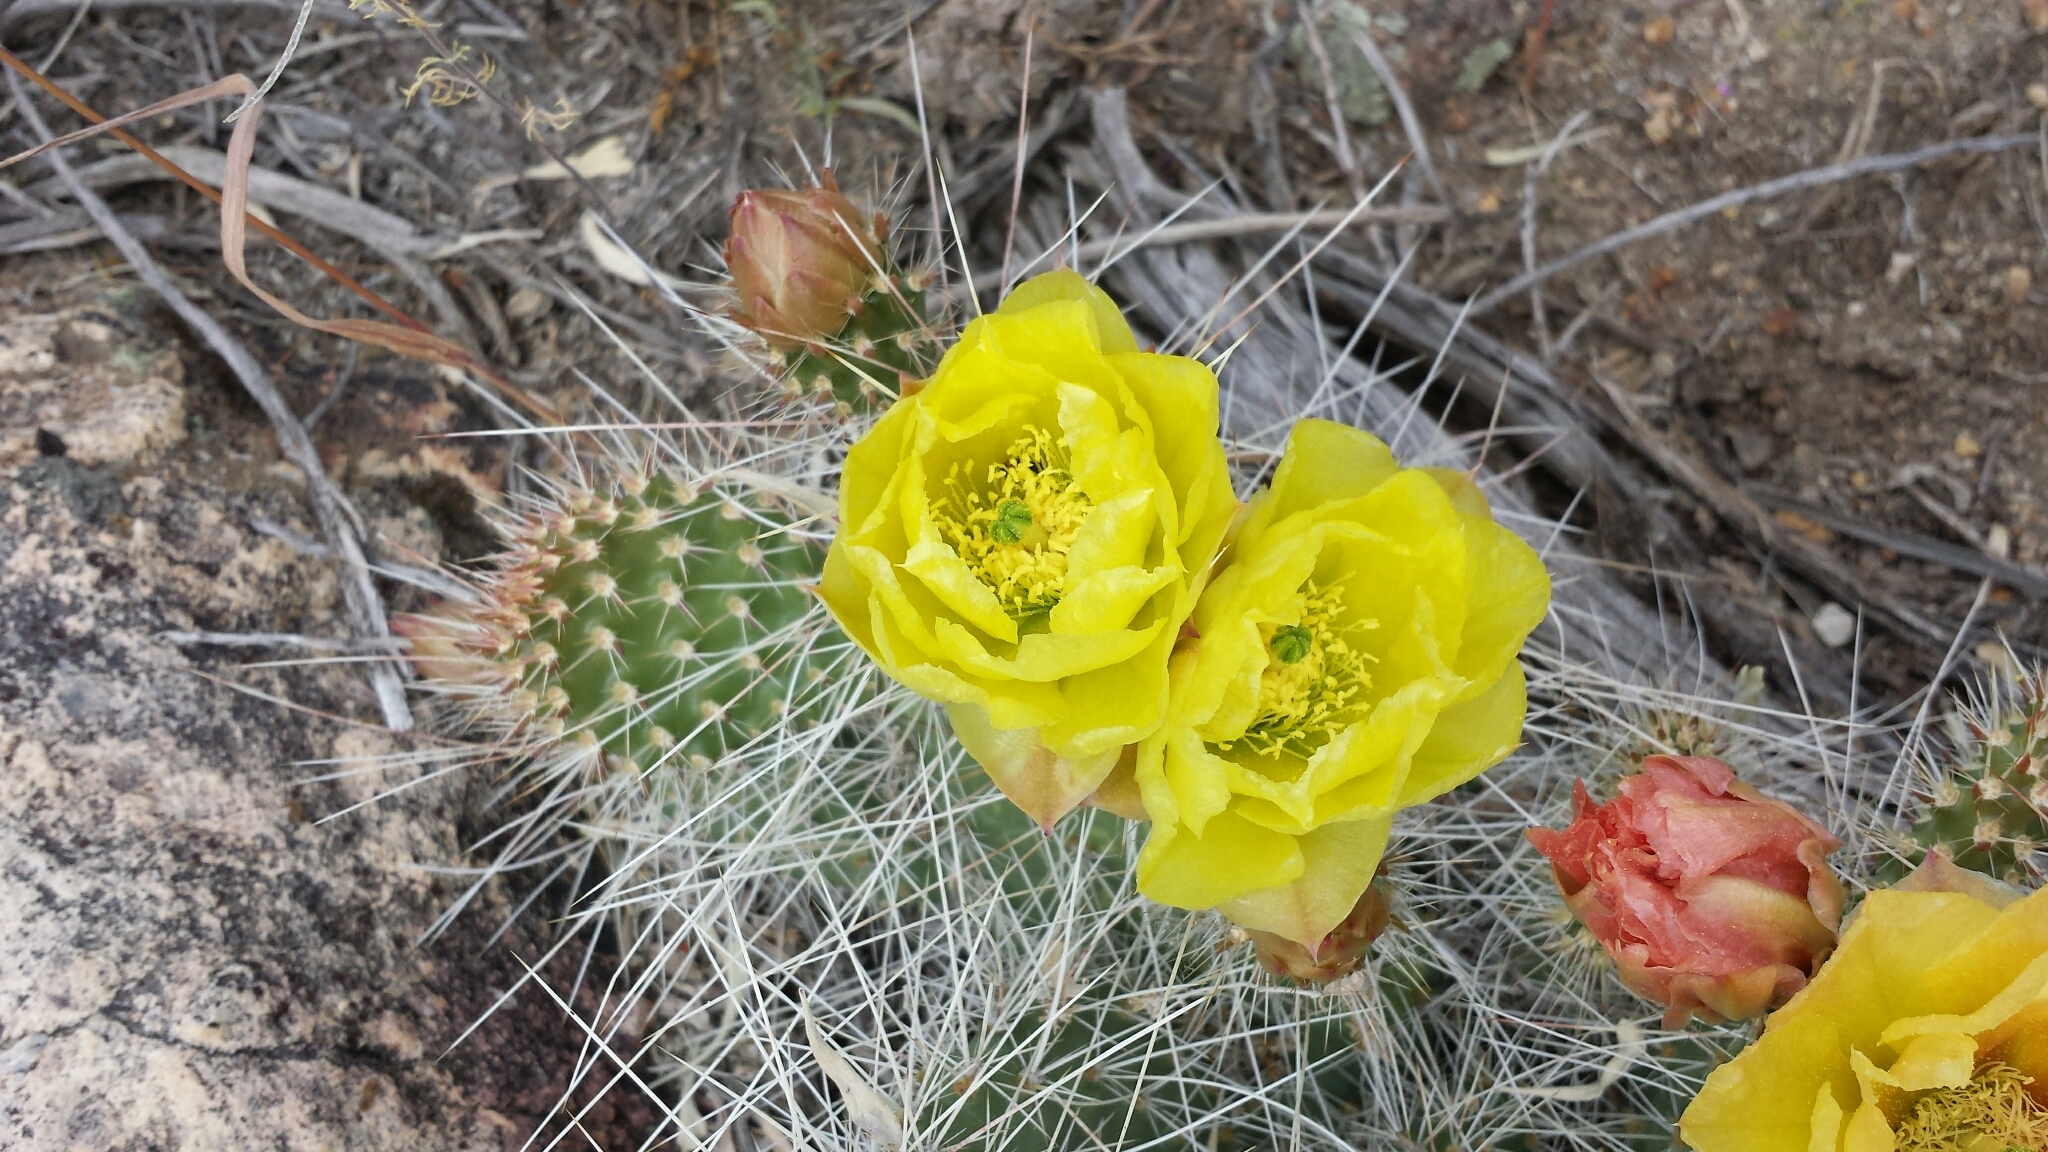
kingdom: Plantae
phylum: Tracheophyta
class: Magnoliopsida
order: Caryophyllales
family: Cactaceae
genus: Opuntia
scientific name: Opuntia polyacantha
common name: Plains prickly-pear
